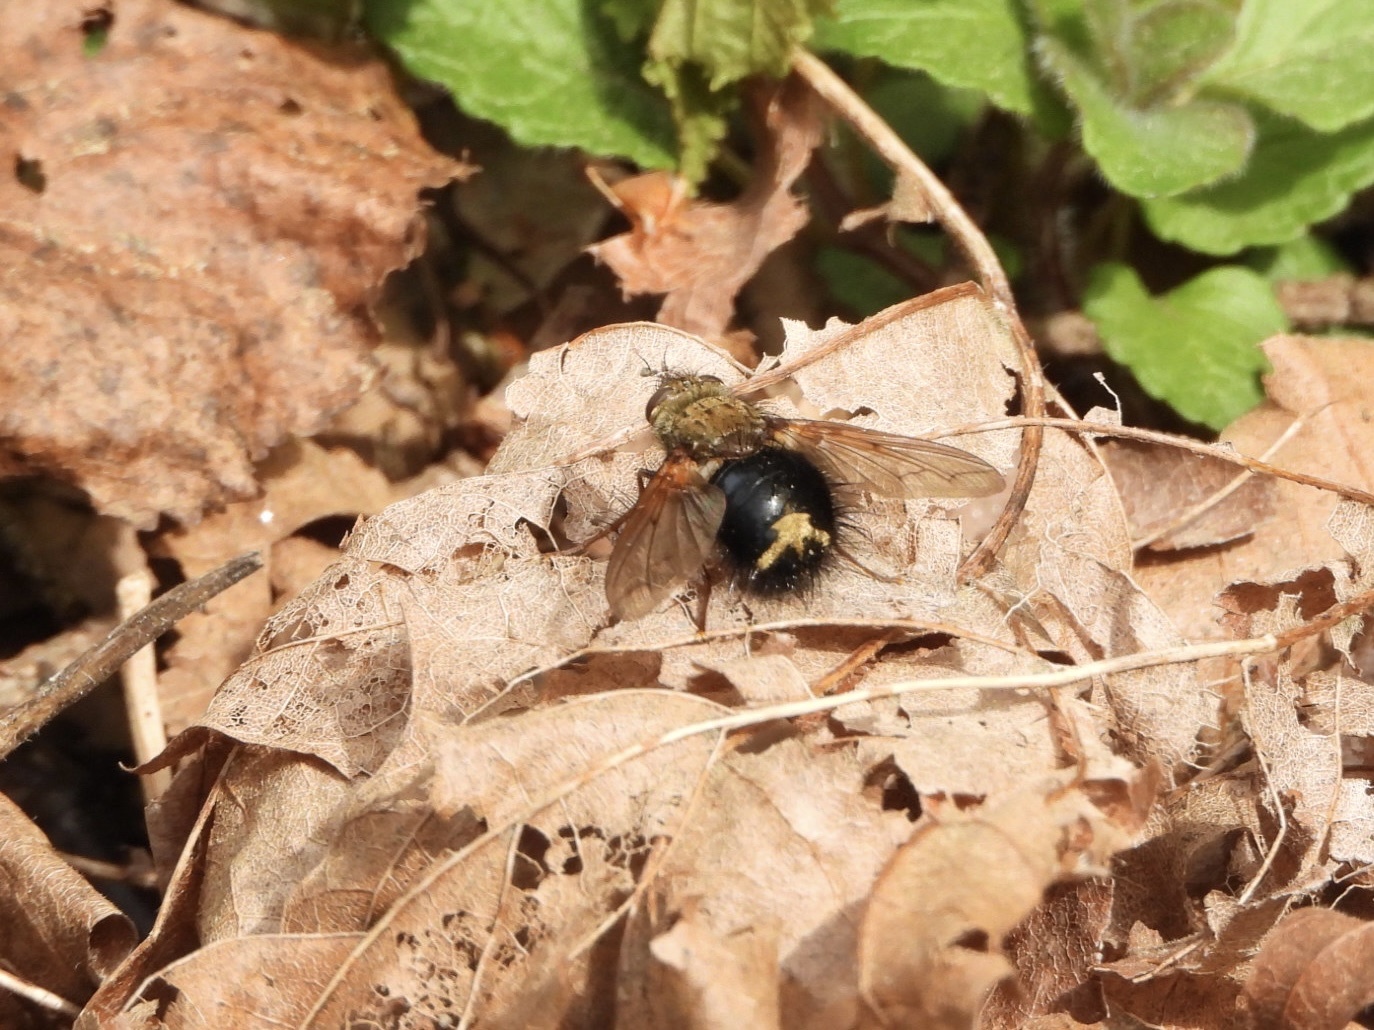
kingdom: Animalia
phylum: Arthropoda
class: Insecta
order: Diptera
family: Tachinidae
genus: Epalpus
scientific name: Epalpus signifer
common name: Early tachinid fly
